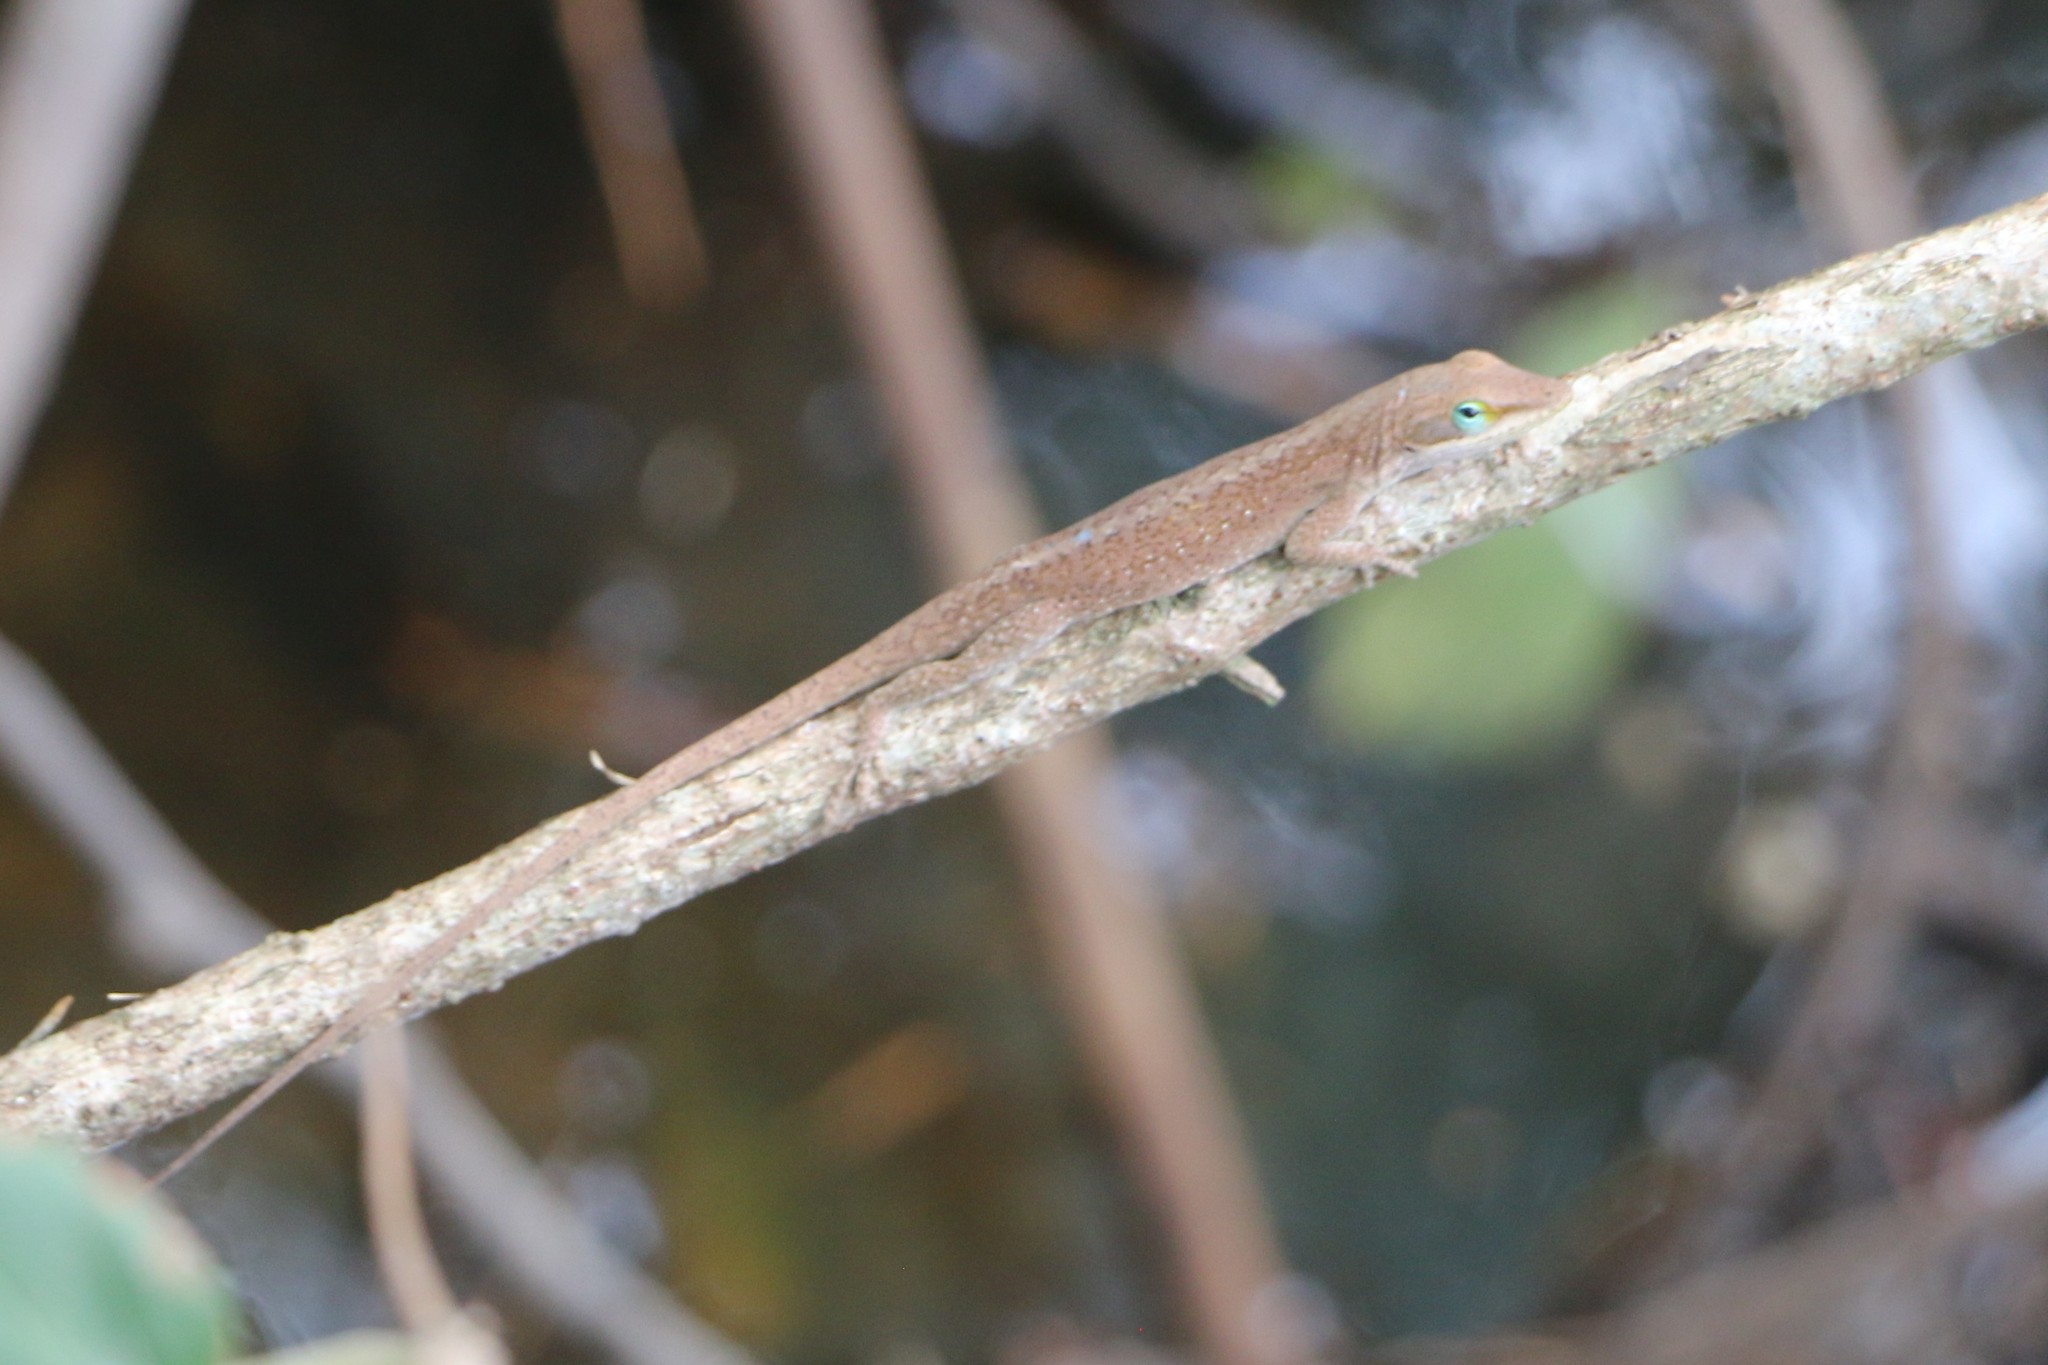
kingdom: Animalia
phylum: Chordata
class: Squamata
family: Dactyloidae
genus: Anolis
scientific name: Anolis carolinensis
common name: Green anole
